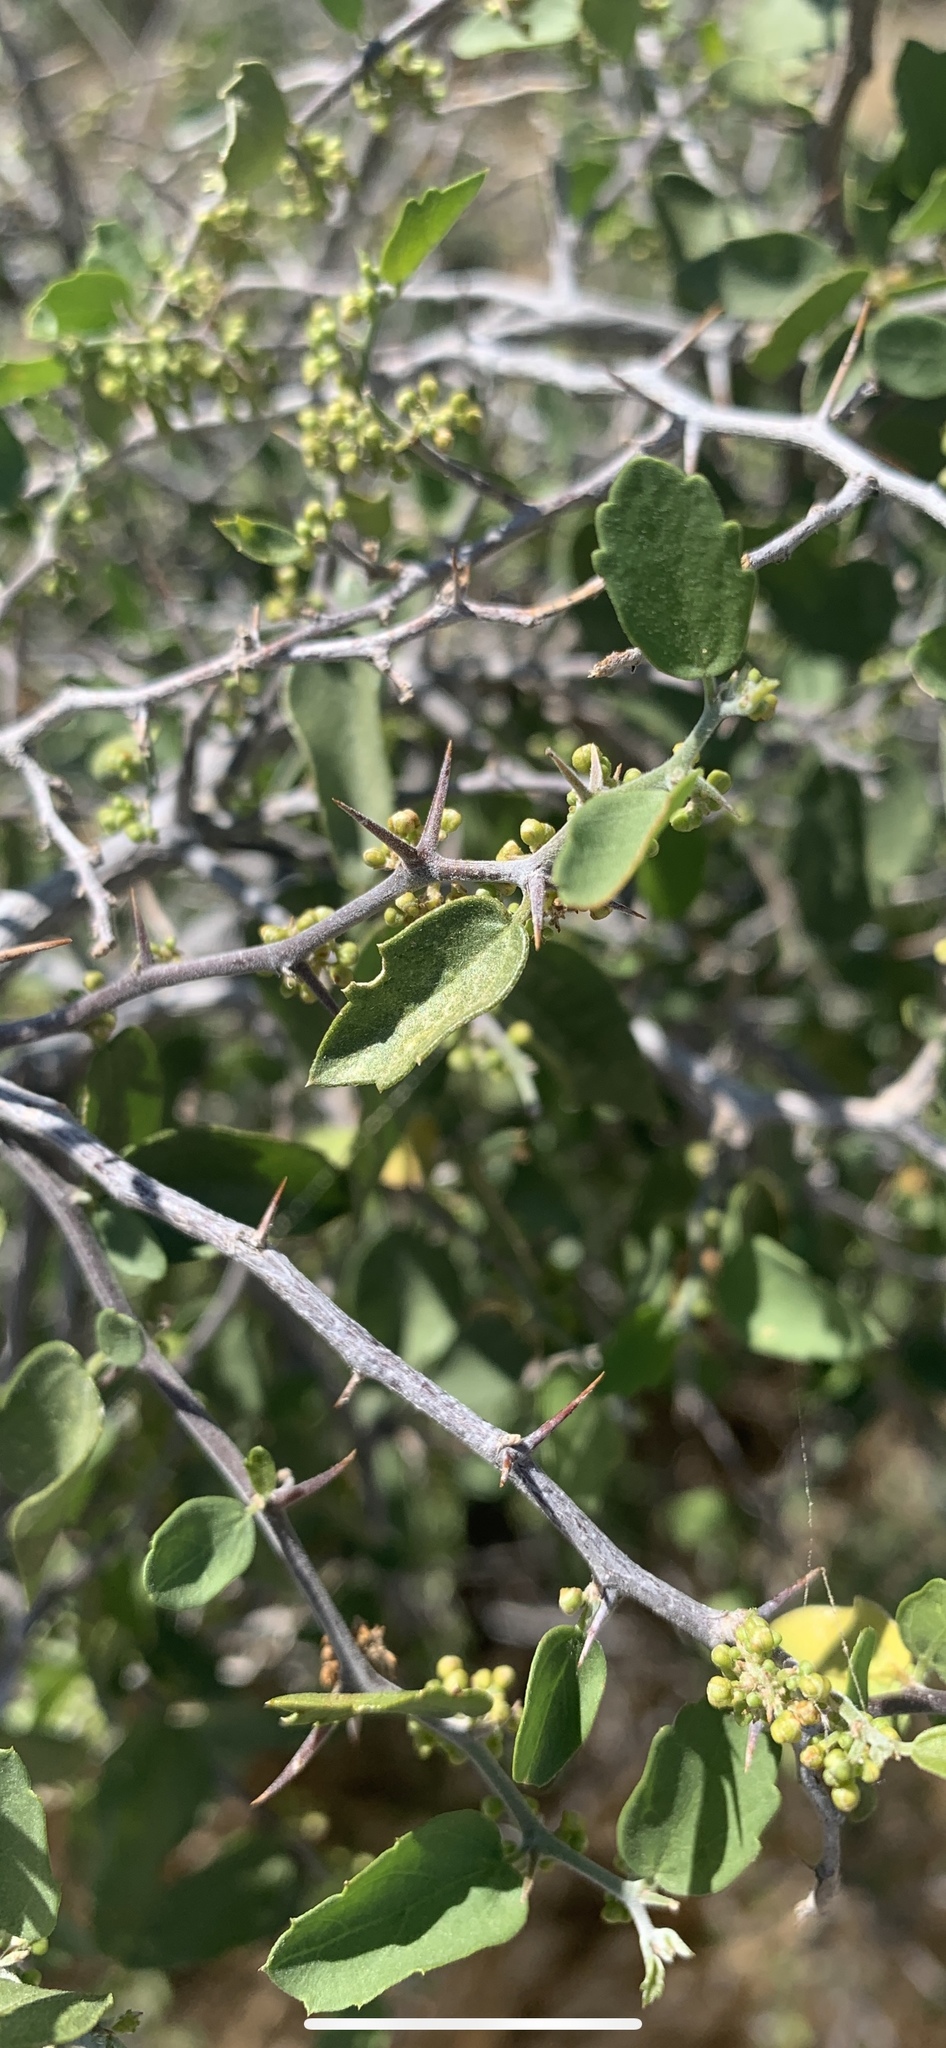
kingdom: Plantae
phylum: Tracheophyta
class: Magnoliopsida
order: Rosales
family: Cannabaceae
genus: Celtis
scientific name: Celtis pallida
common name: Desert hackberry
